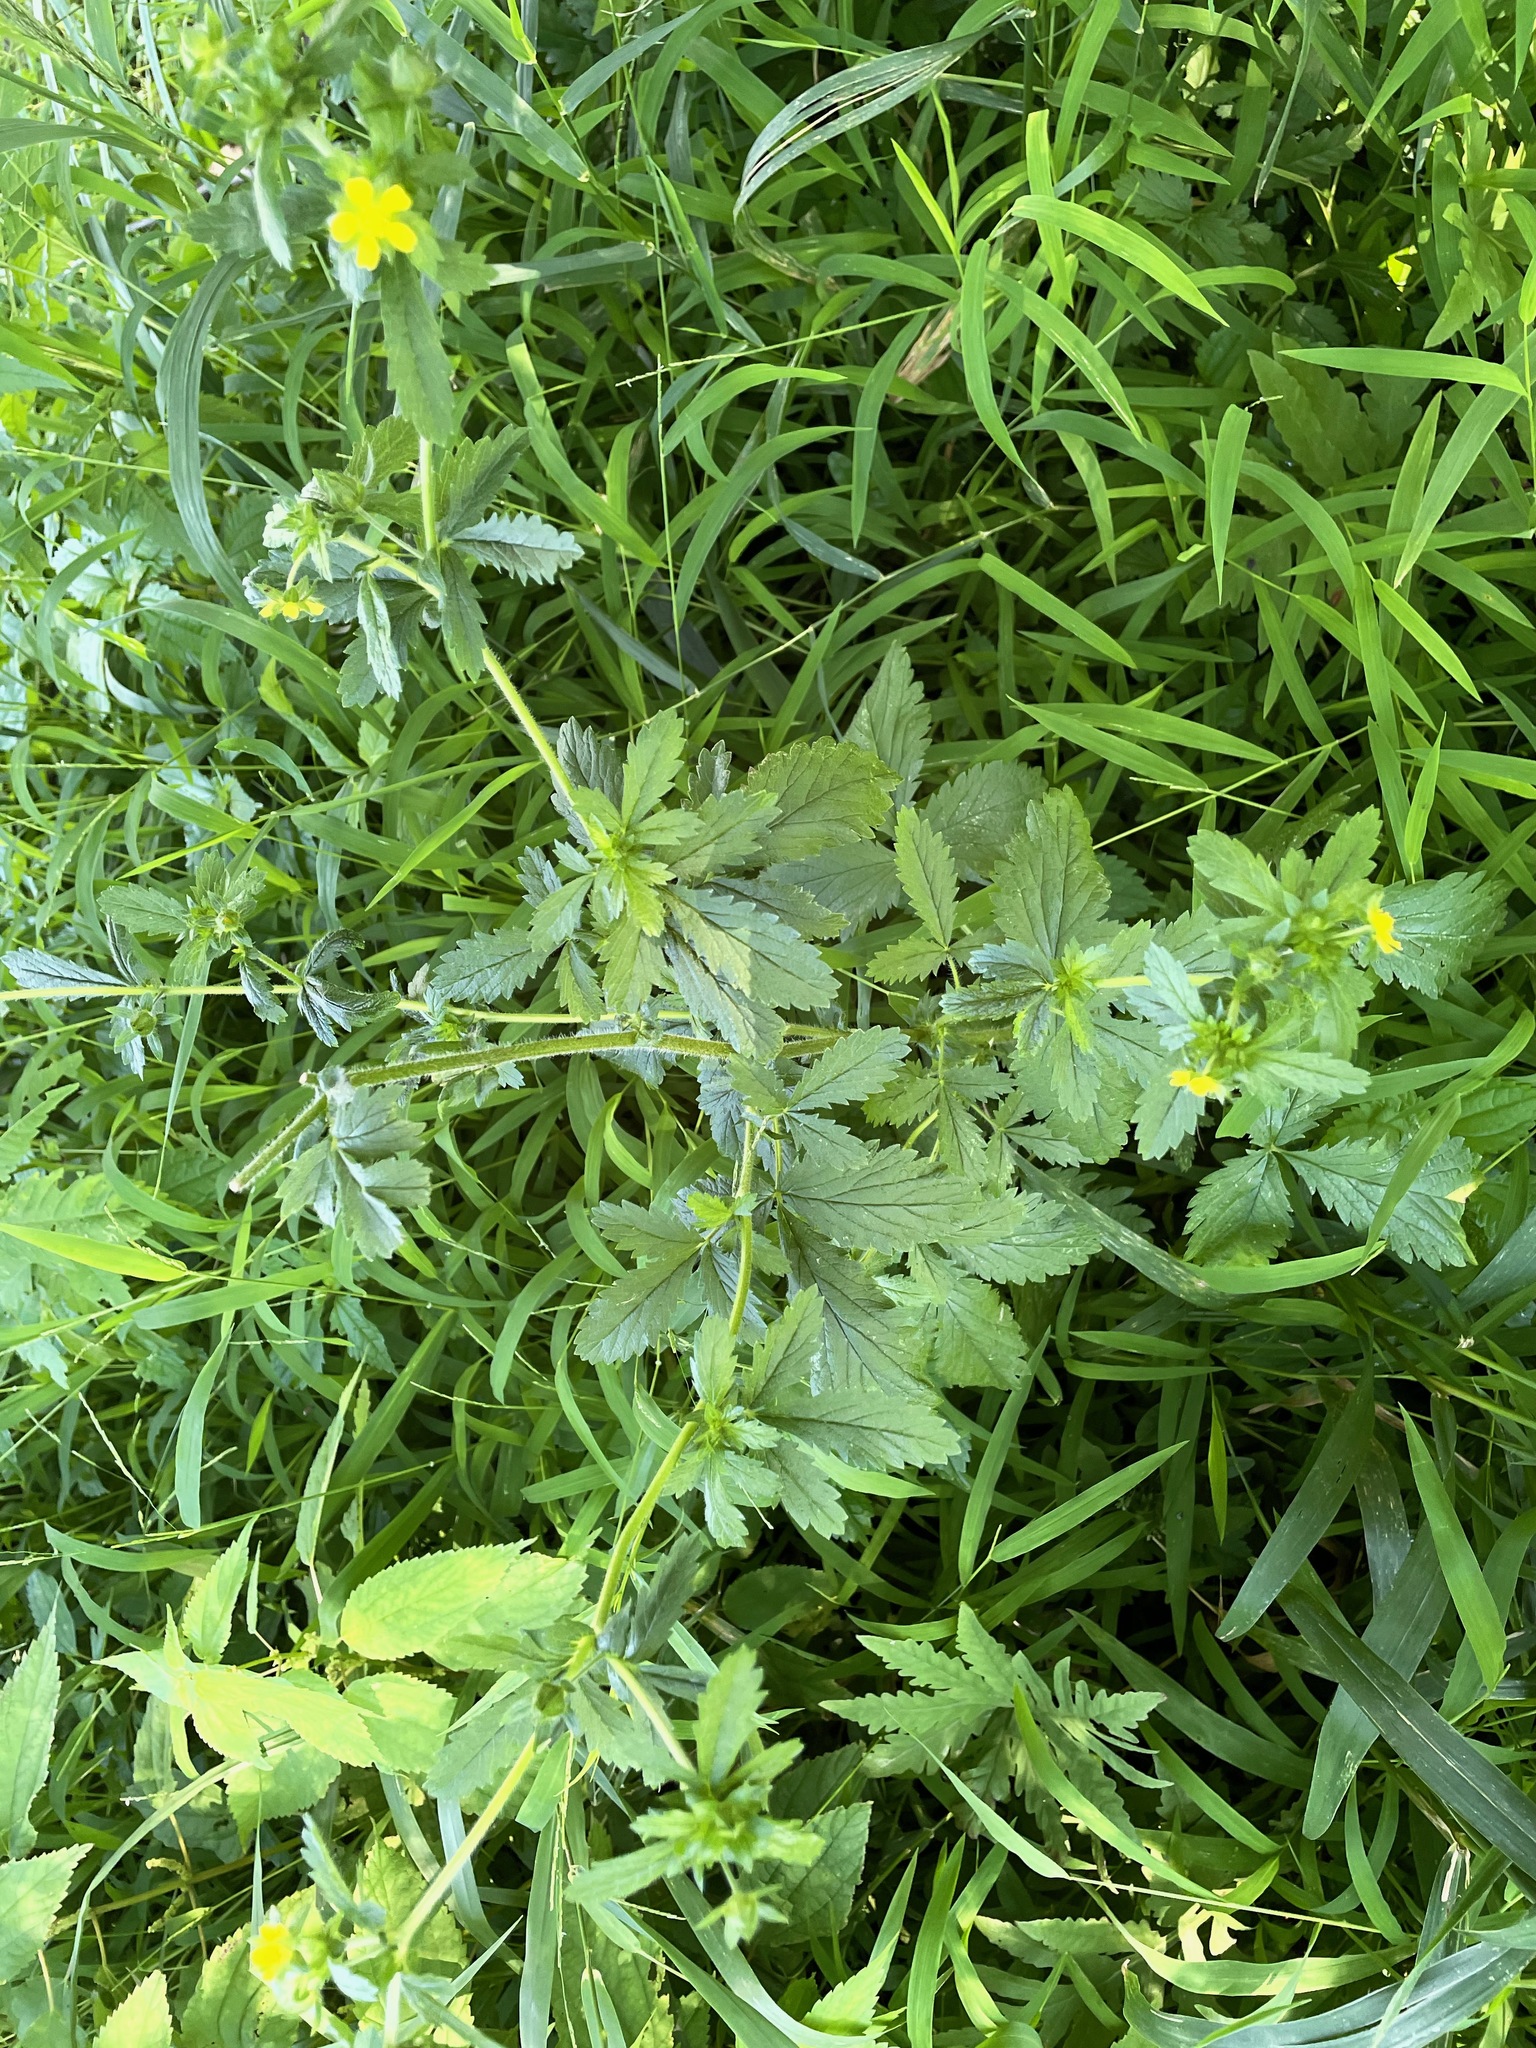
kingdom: Plantae
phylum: Tracheophyta
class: Magnoliopsida
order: Rosales
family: Rosaceae
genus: Potentilla
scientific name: Potentilla norvegica
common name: Ternate-leaved cinquefoil
